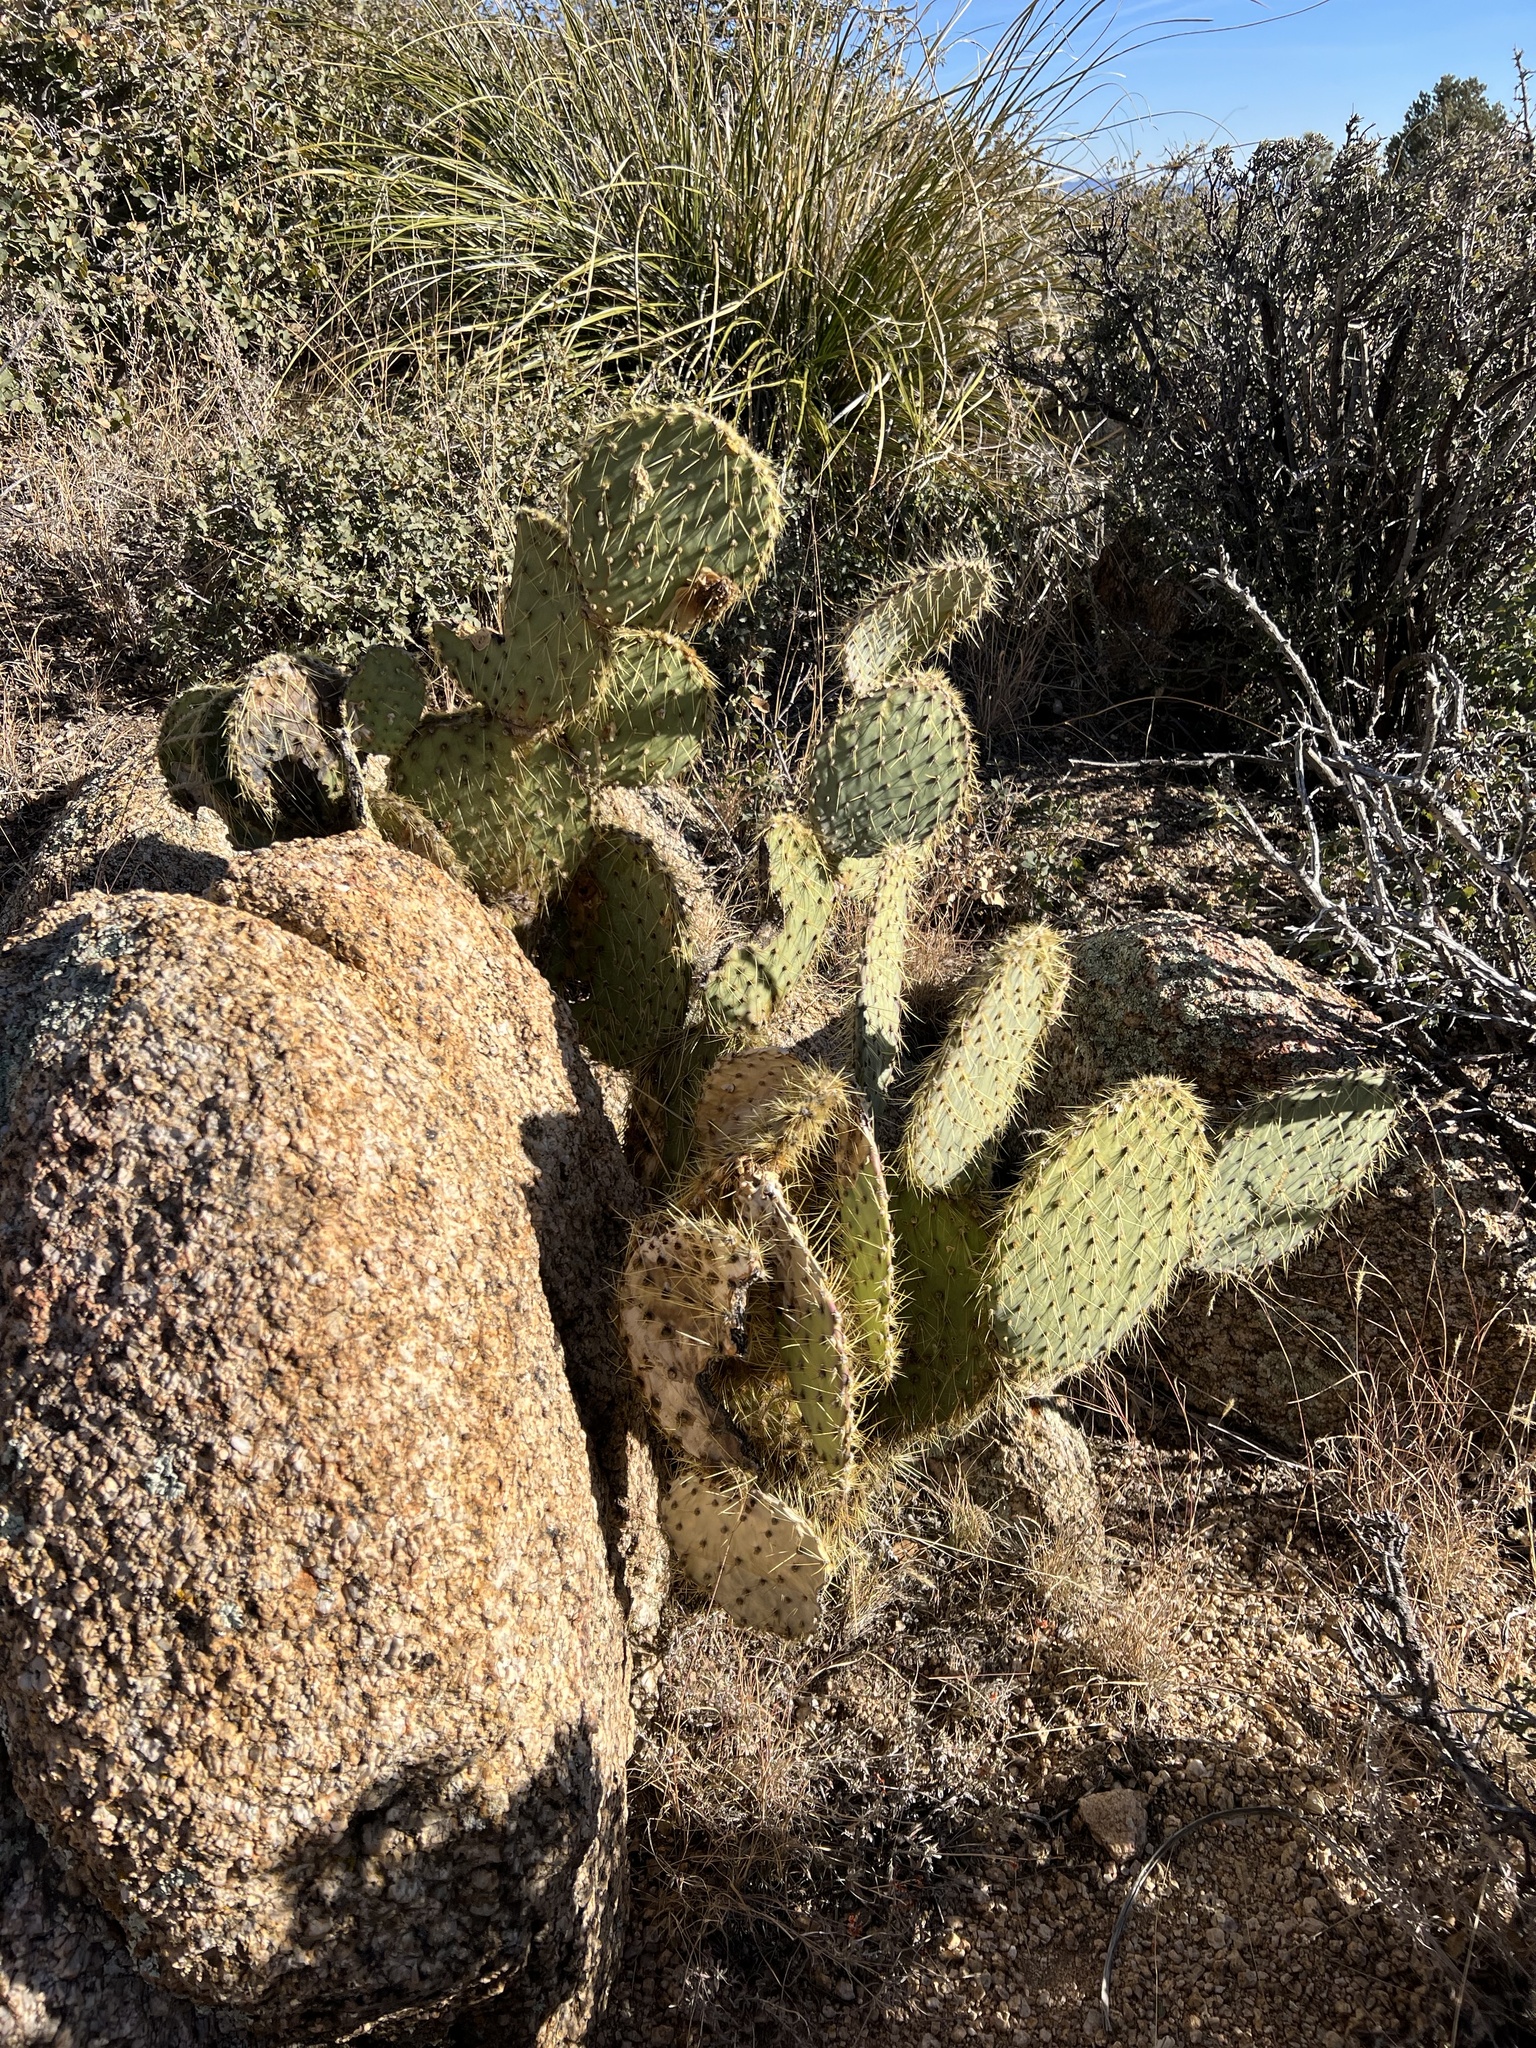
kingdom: Plantae
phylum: Tracheophyta
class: Magnoliopsida
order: Caryophyllales
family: Cactaceae
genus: Opuntia
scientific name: Opuntia chlorotica
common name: Dollar-joint prickly-pear
